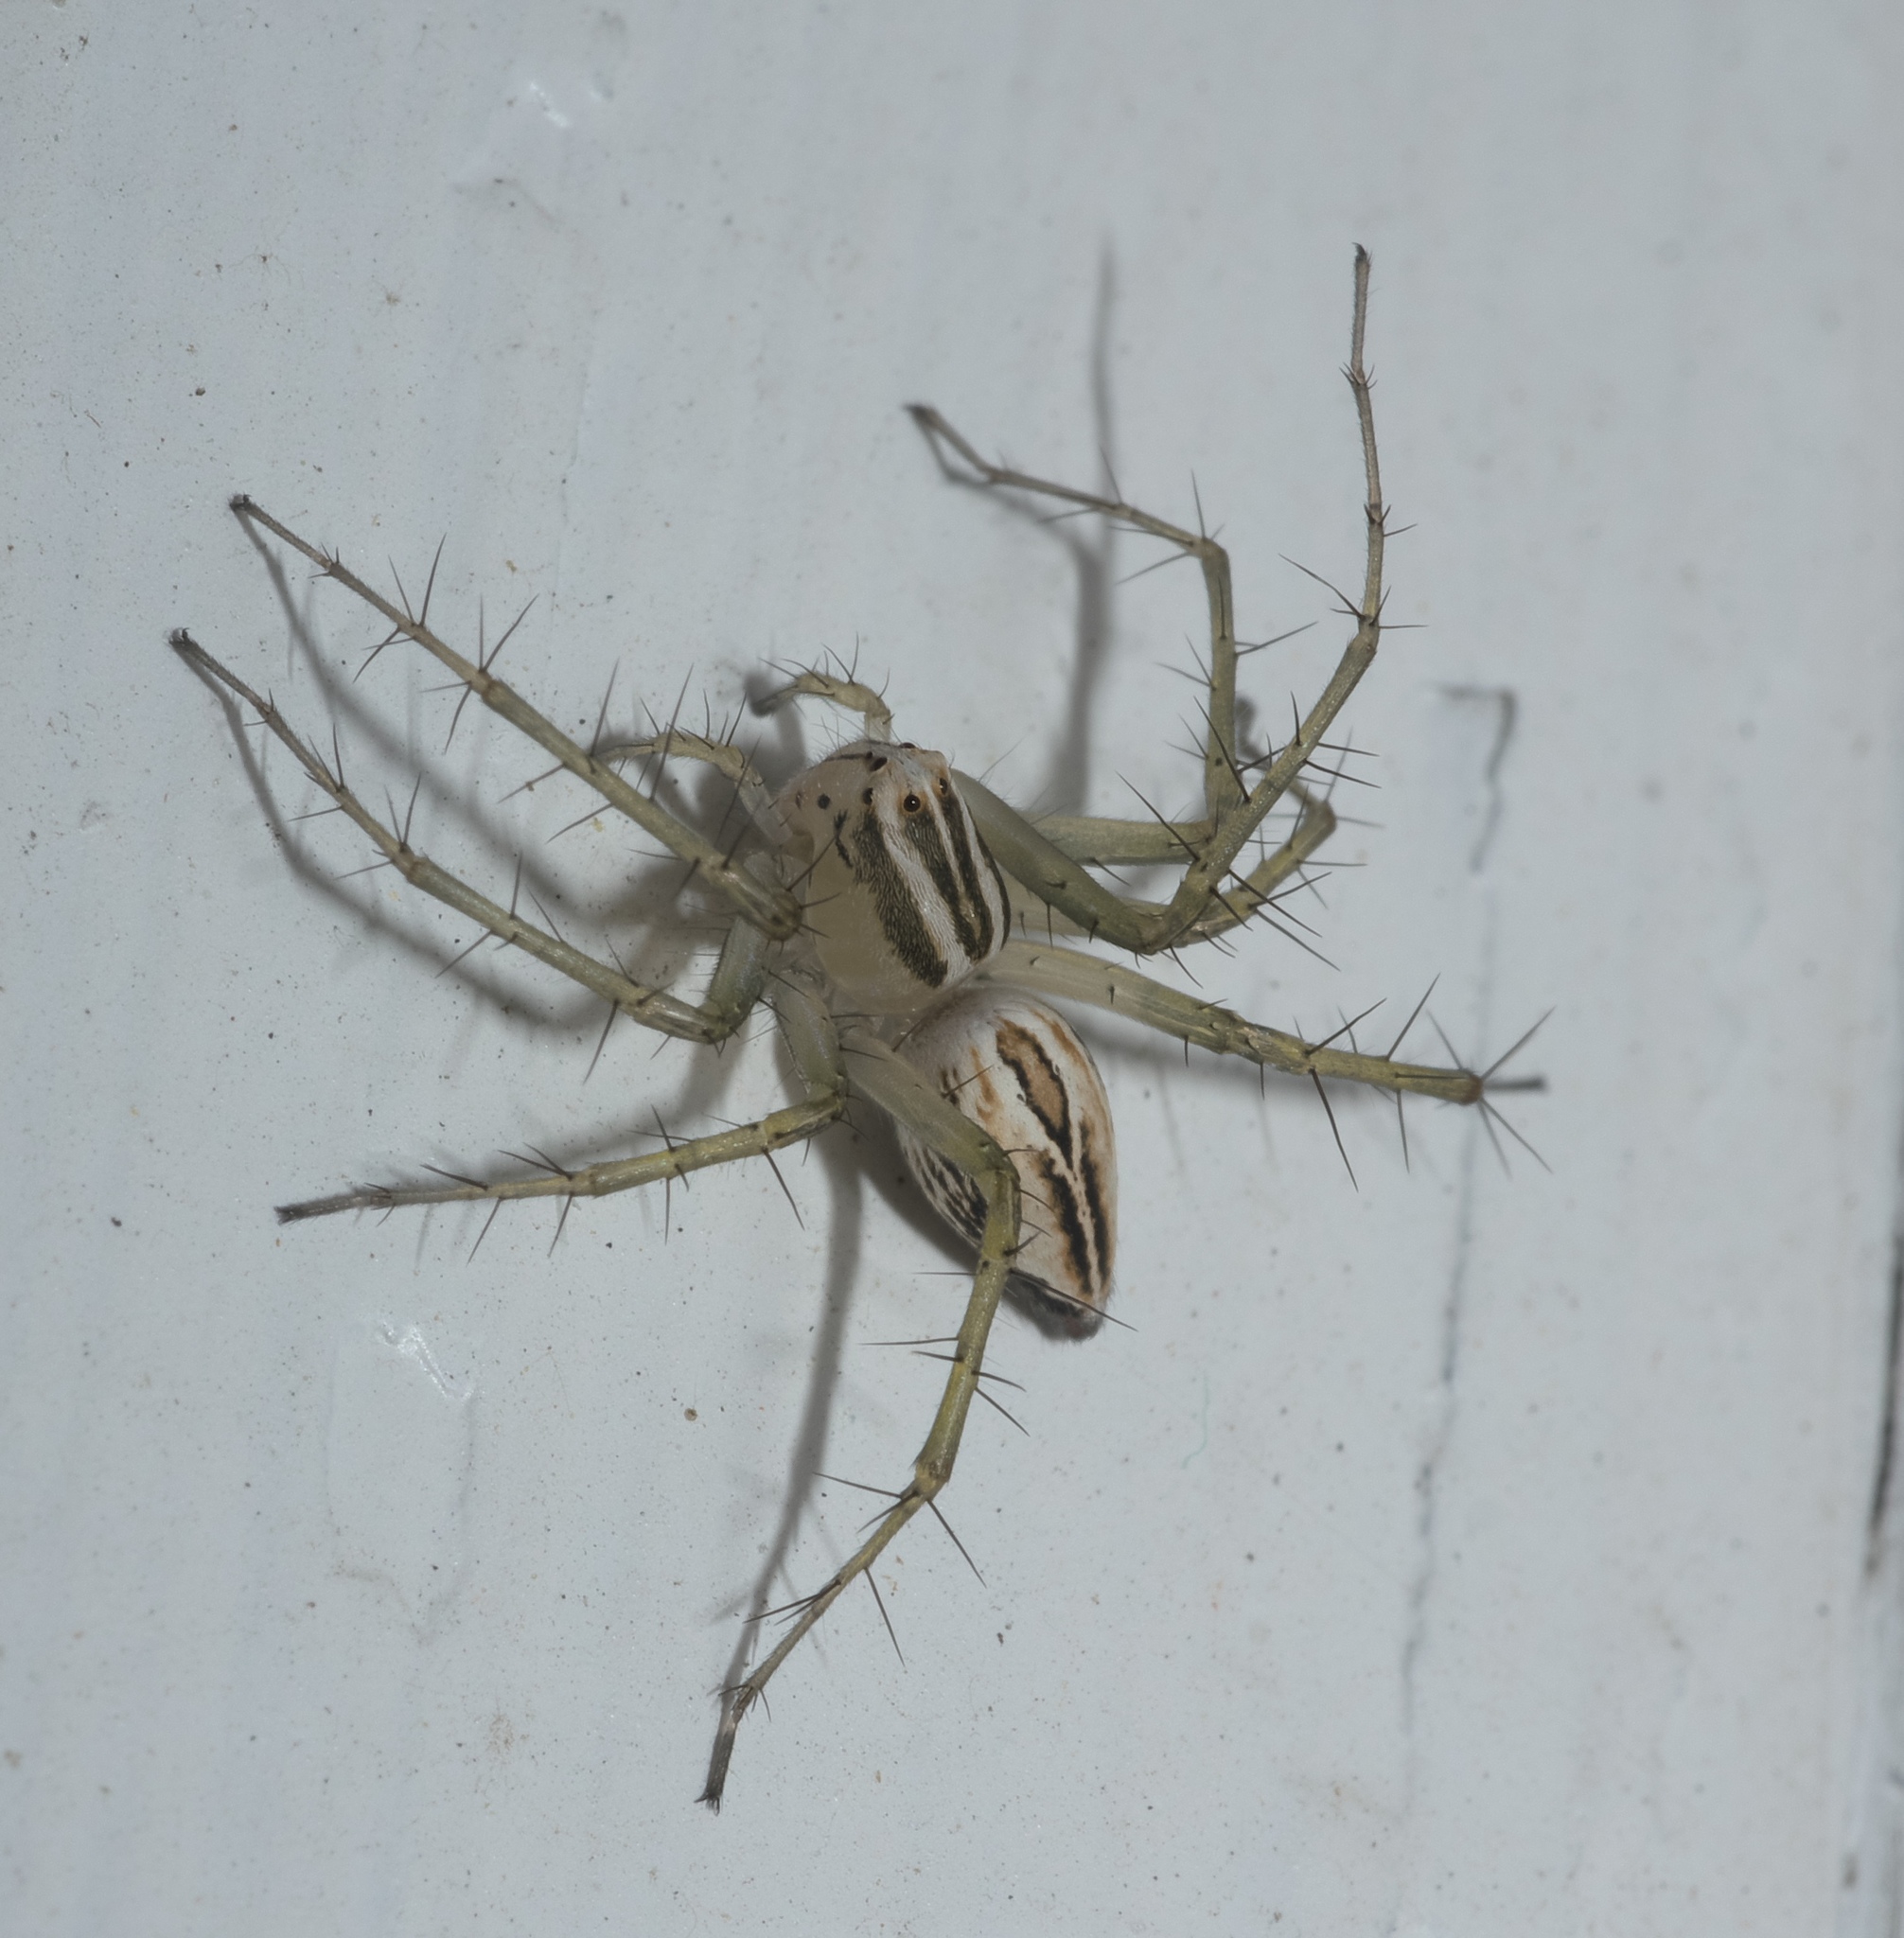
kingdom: Animalia
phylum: Arthropoda
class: Arachnida
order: Araneae
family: Oxyopidae
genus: Oxyopes
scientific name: Oxyopes salticus
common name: Lynx spiders
